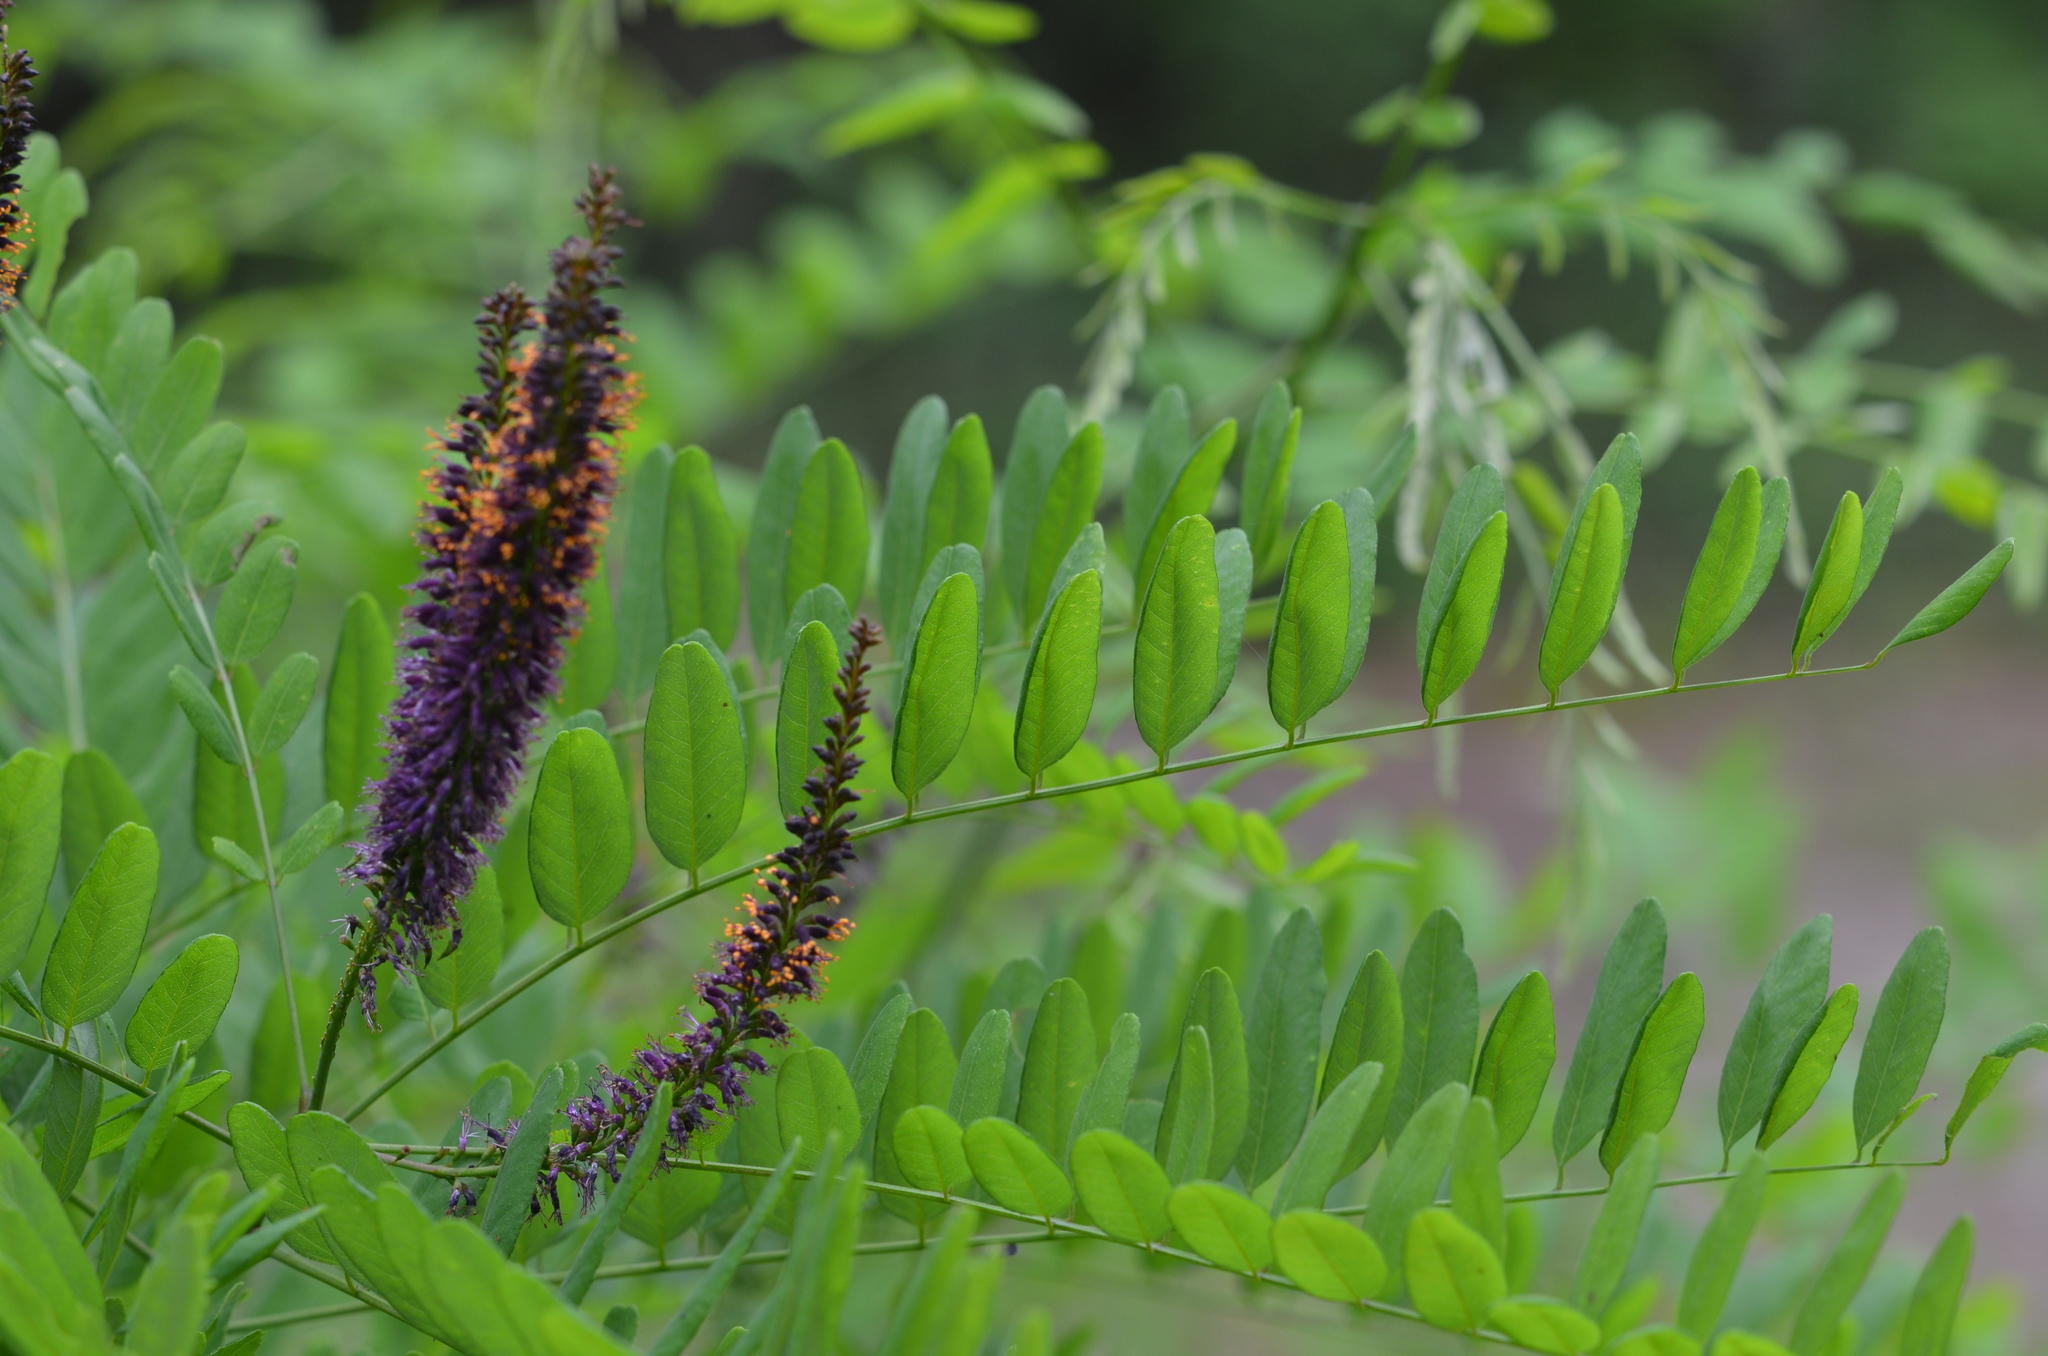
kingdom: Plantae
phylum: Tracheophyta
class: Magnoliopsida
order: Fabales
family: Fabaceae
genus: Amorpha
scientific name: Amorpha fruticosa
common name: False indigo
